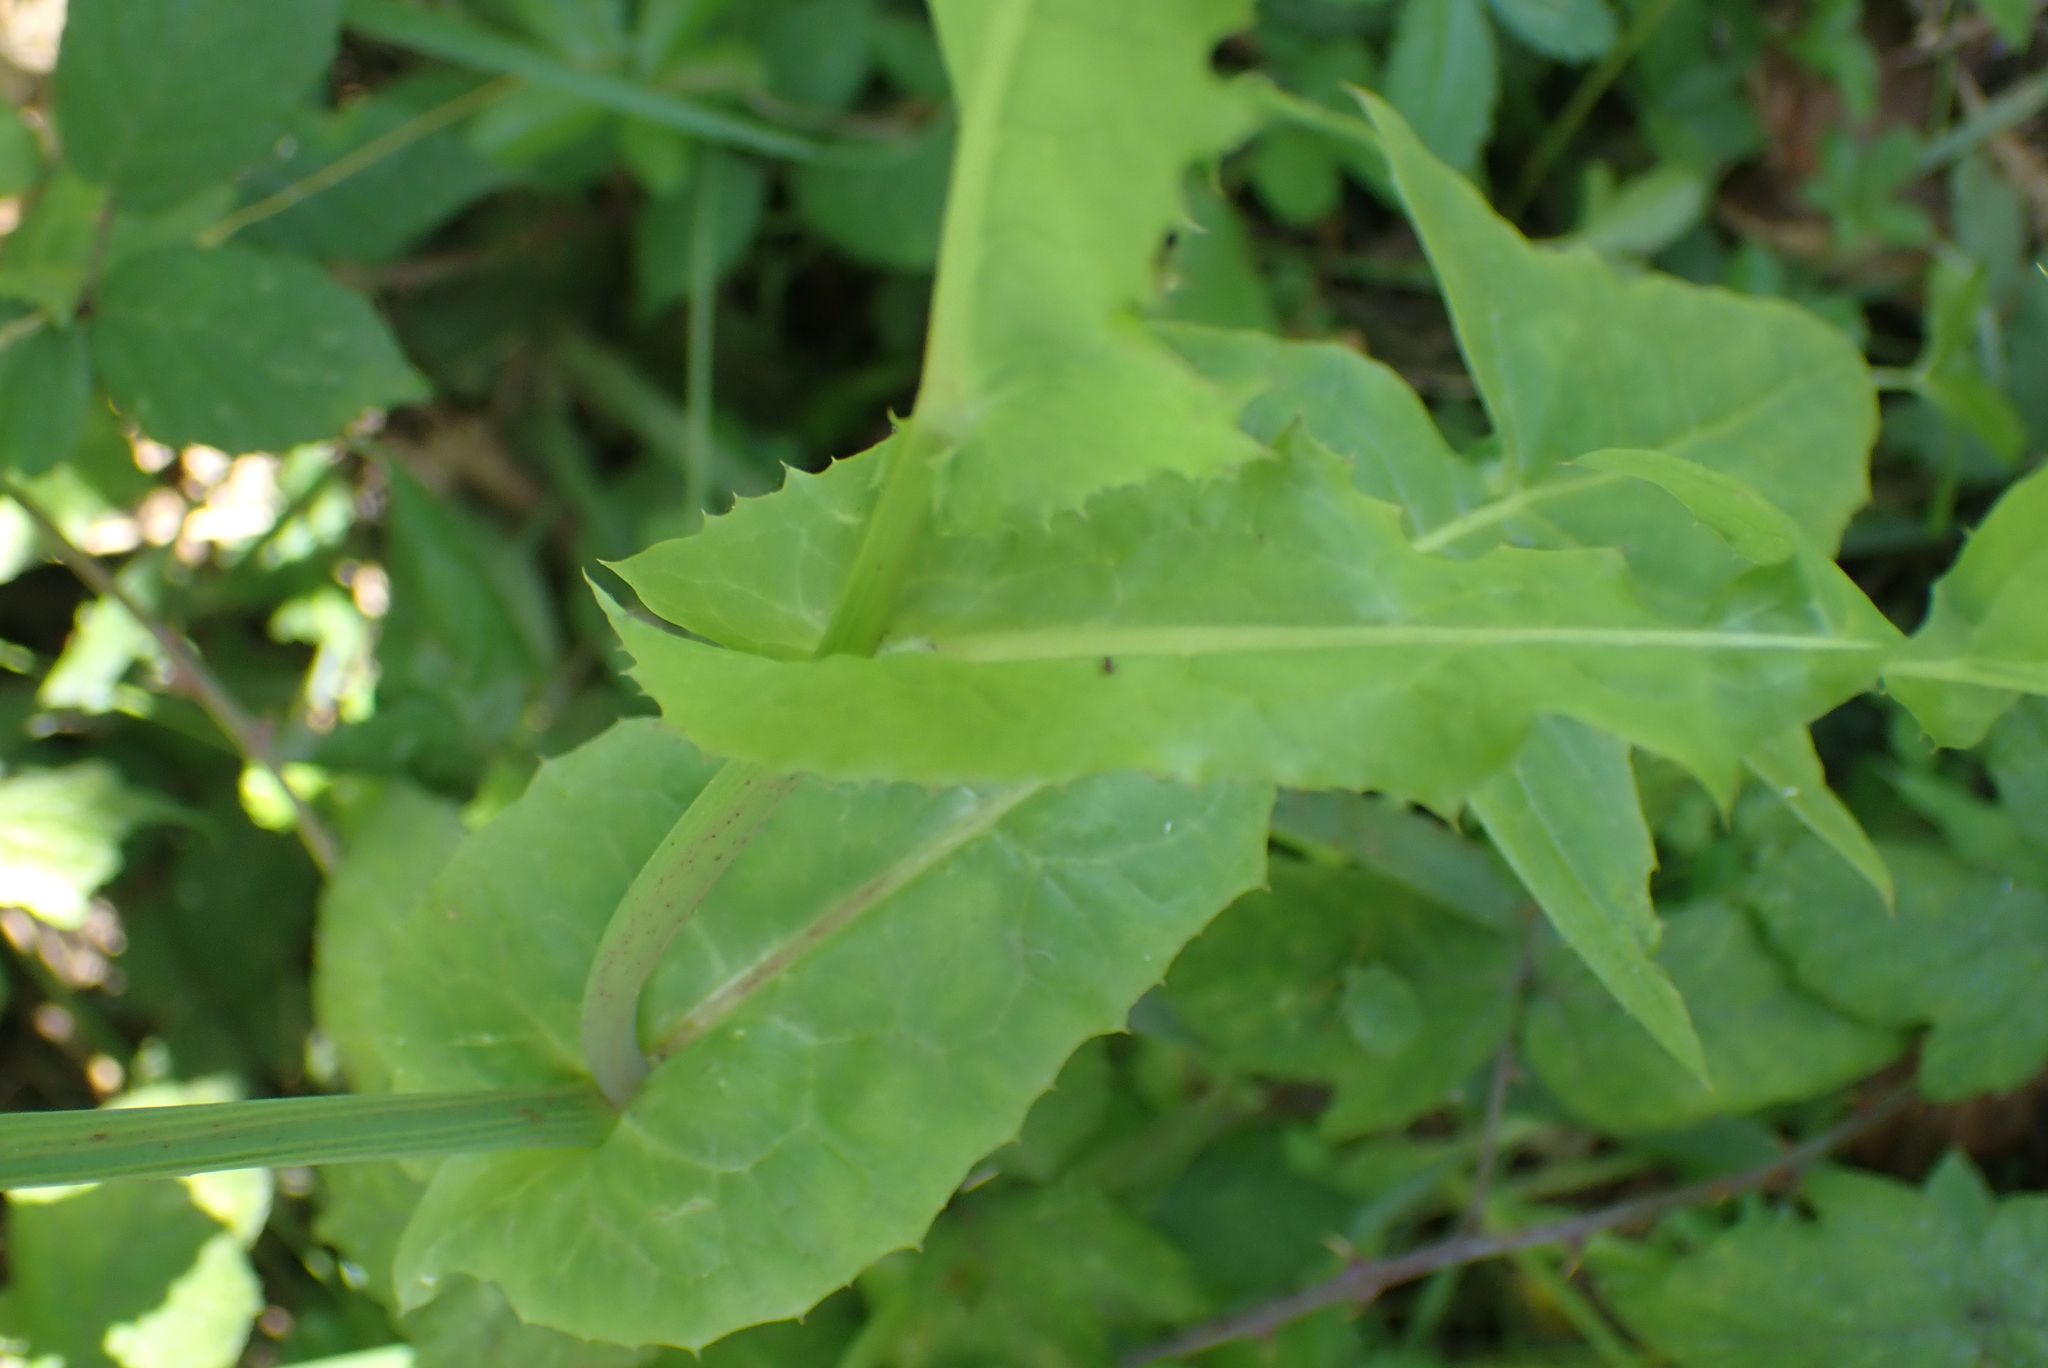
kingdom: Plantae
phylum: Tracheophyta
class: Magnoliopsida
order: Asterales
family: Asteraceae
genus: Sonchus
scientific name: Sonchus oleraceus
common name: Common sowthistle
